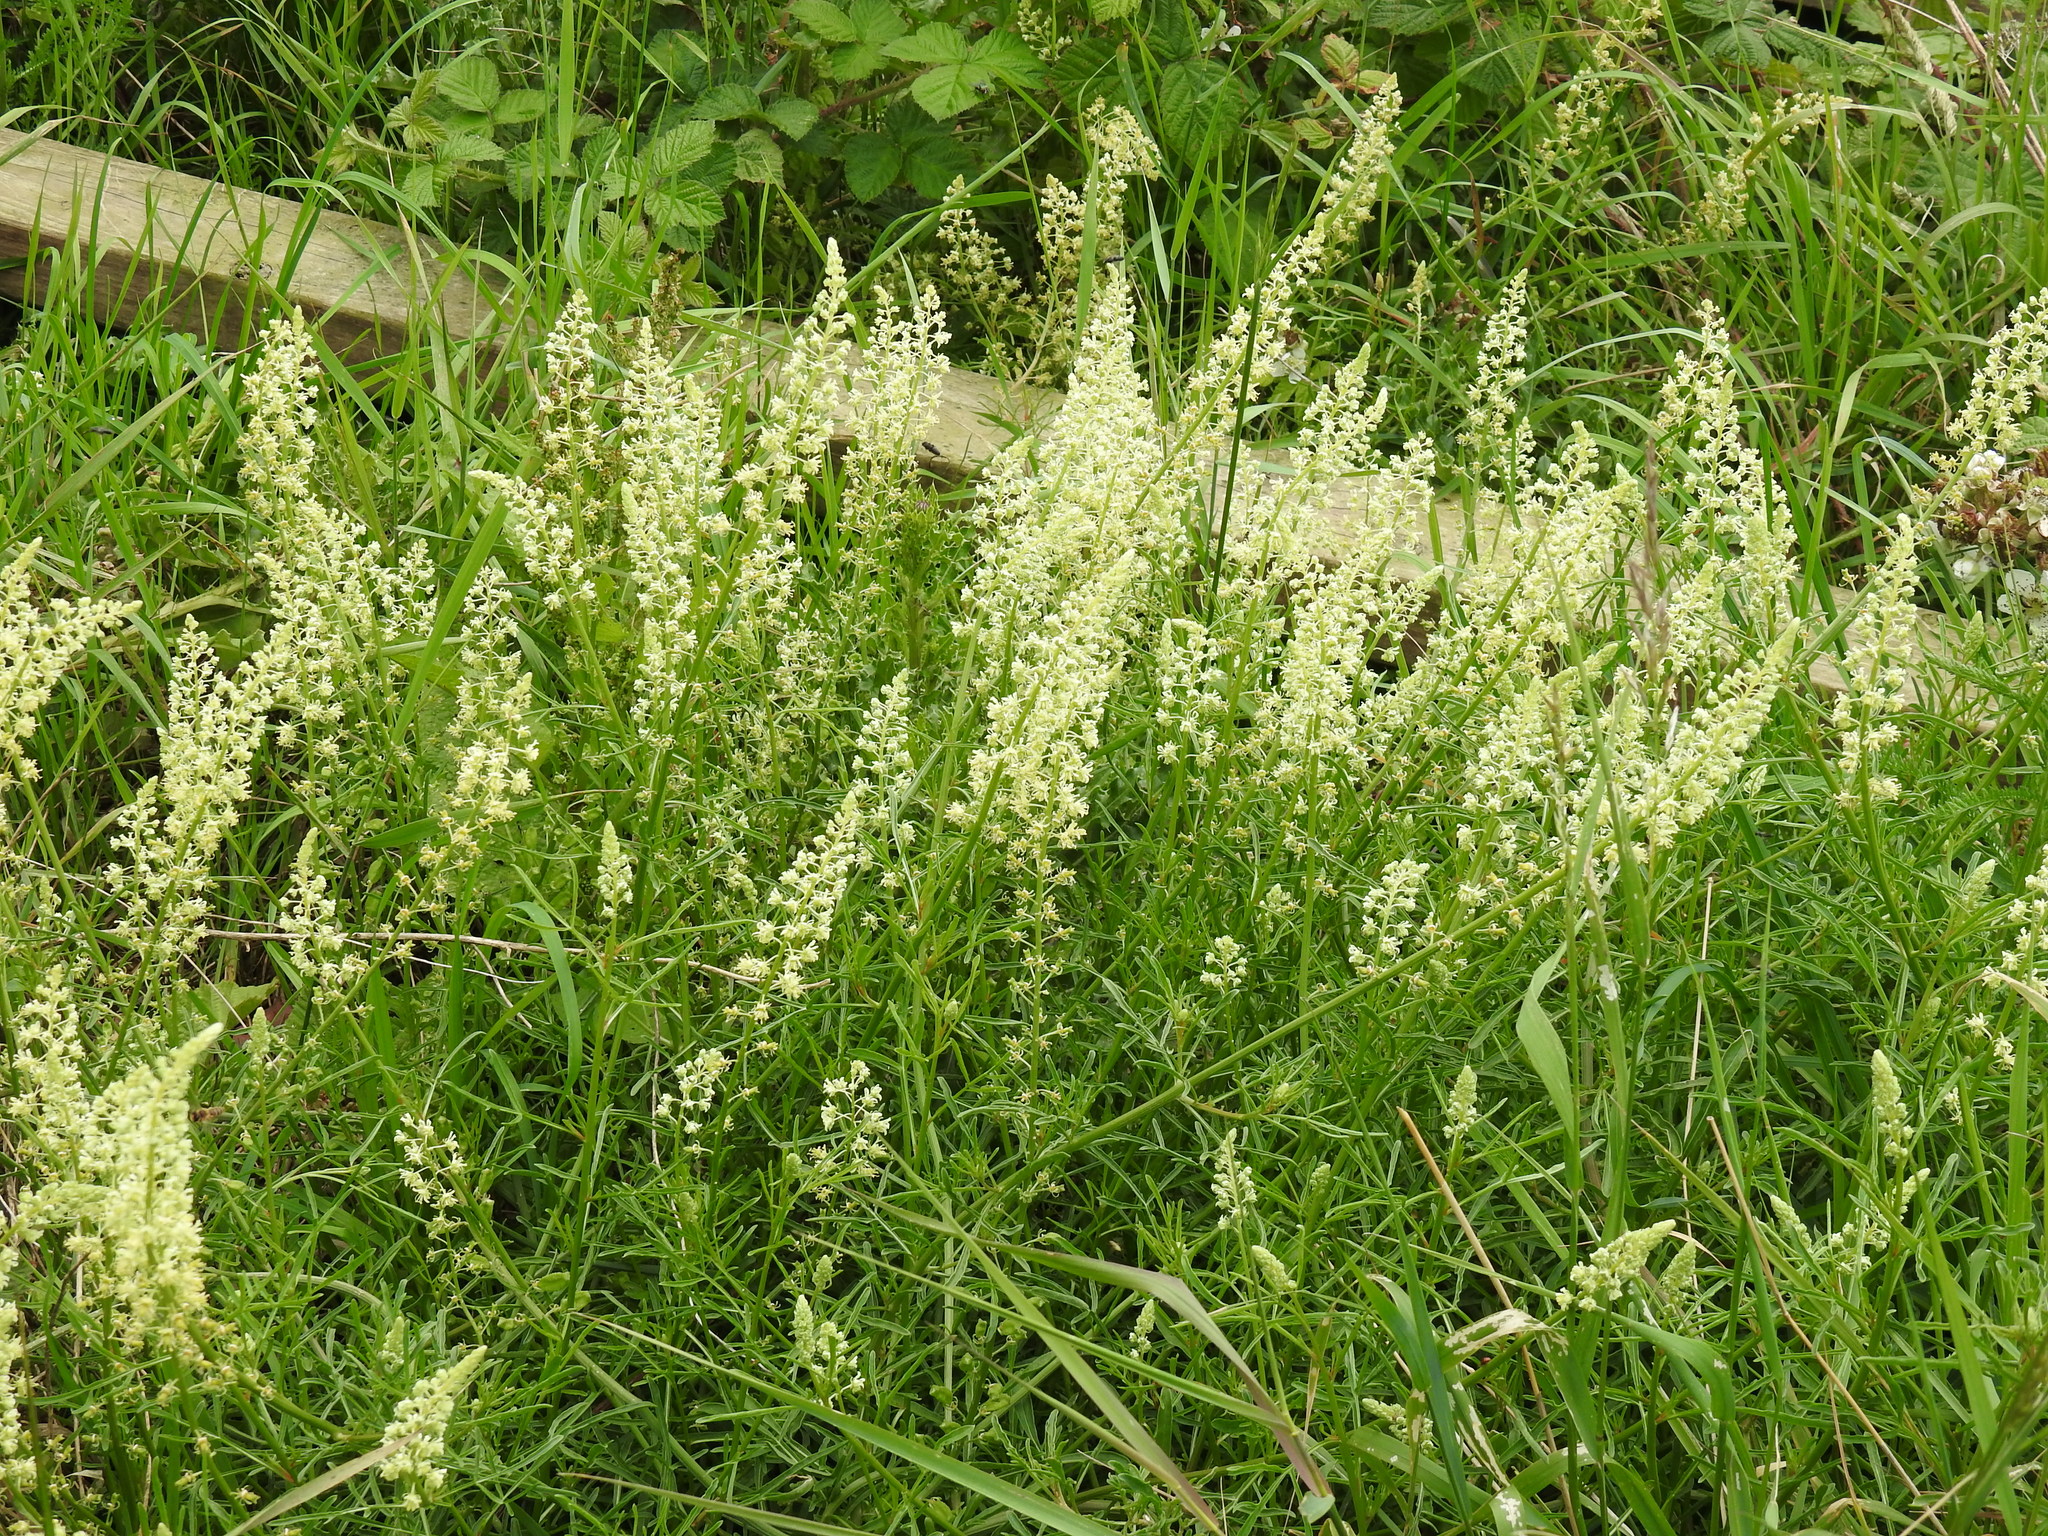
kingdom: Plantae
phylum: Tracheophyta
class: Magnoliopsida
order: Brassicales
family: Resedaceae
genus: Reseda
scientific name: Reseda lutea
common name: Wild mignonette
